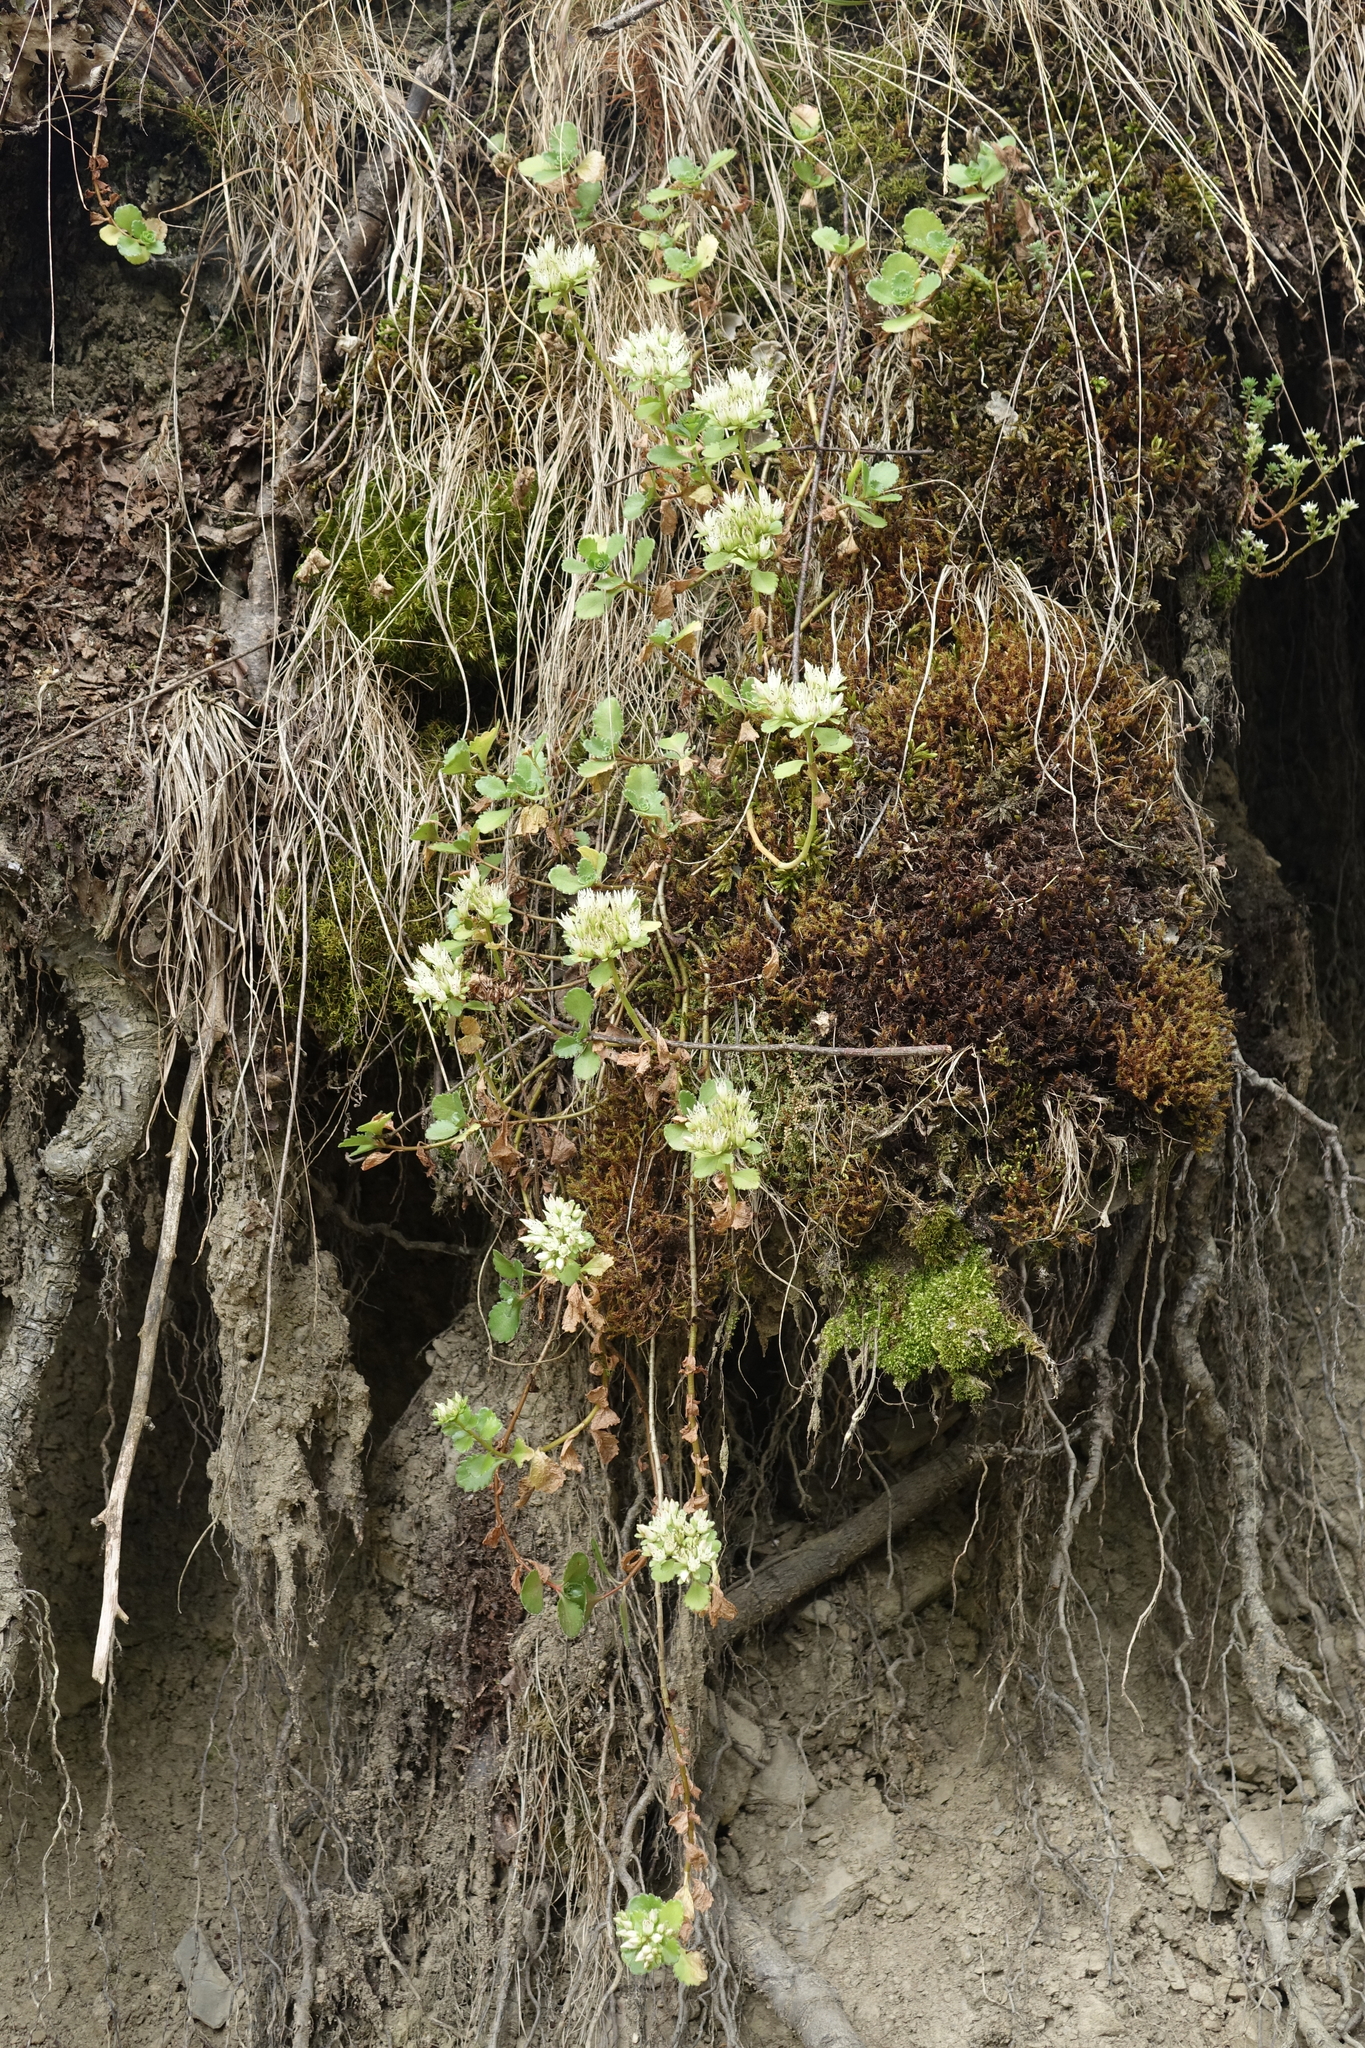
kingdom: Plantae
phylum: Tracheophyta
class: Magnoliopsida
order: Saxifragales
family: Crassulaceae
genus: Phedimus
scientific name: Phedimus spurius
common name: Caucasian stonecrop
